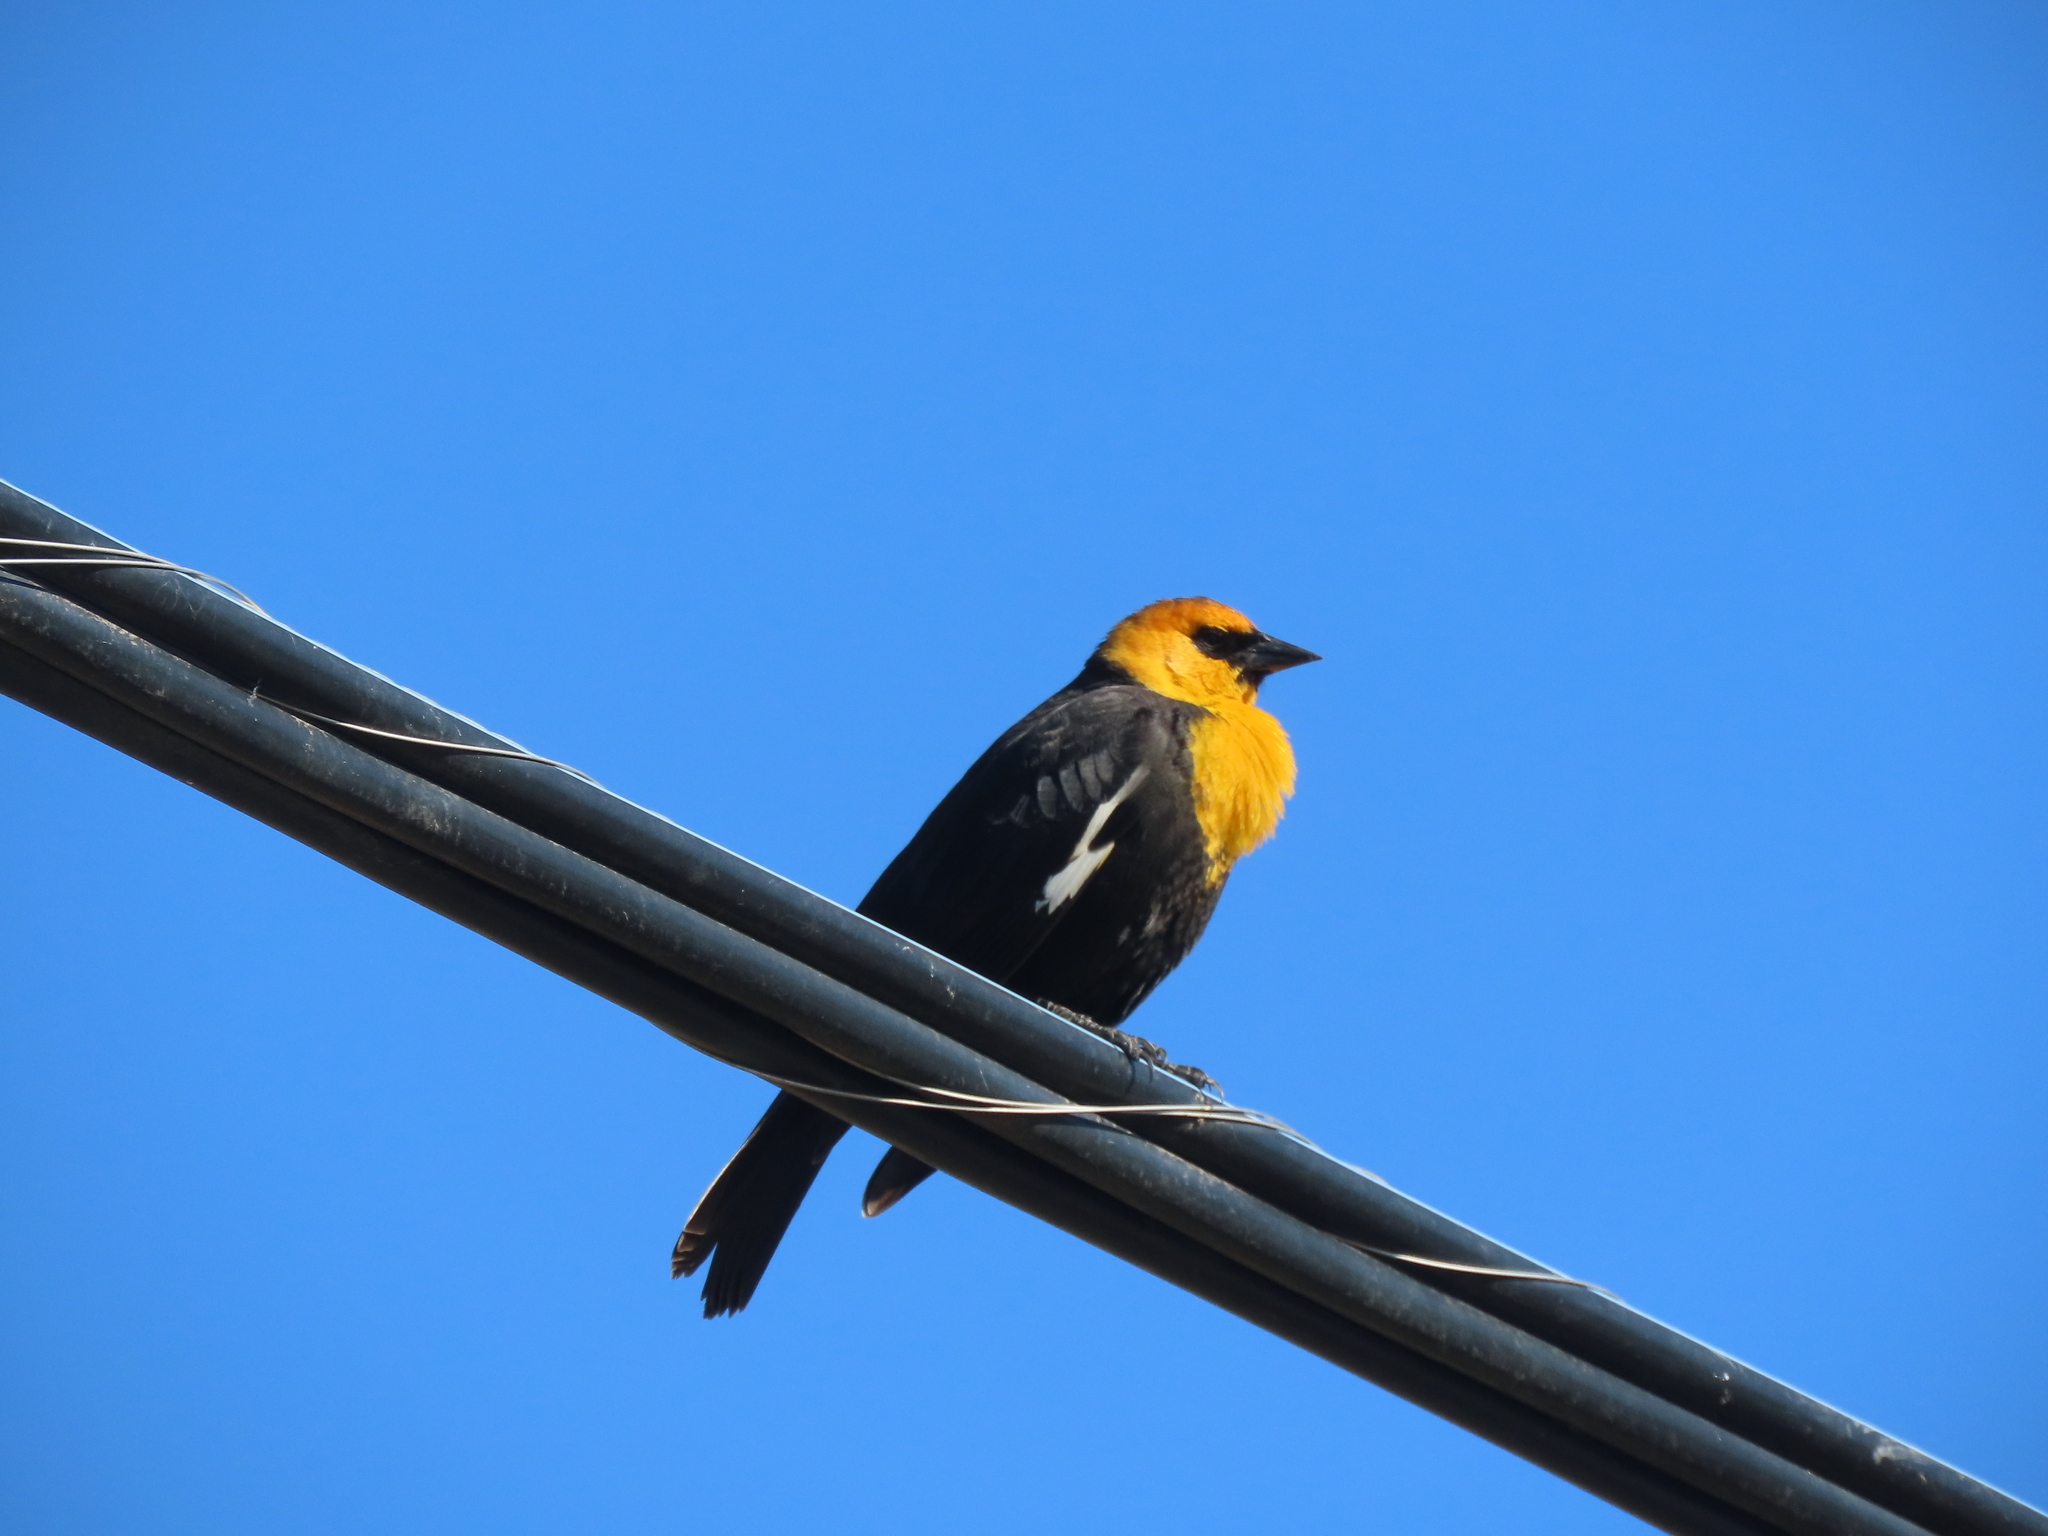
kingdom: Animalia
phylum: Chordata
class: Aves
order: Passeriformes
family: Icteridae
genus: Xanthocephalus
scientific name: Xanthocephalus xanthocephalus
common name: Yellow-headed blackbird
